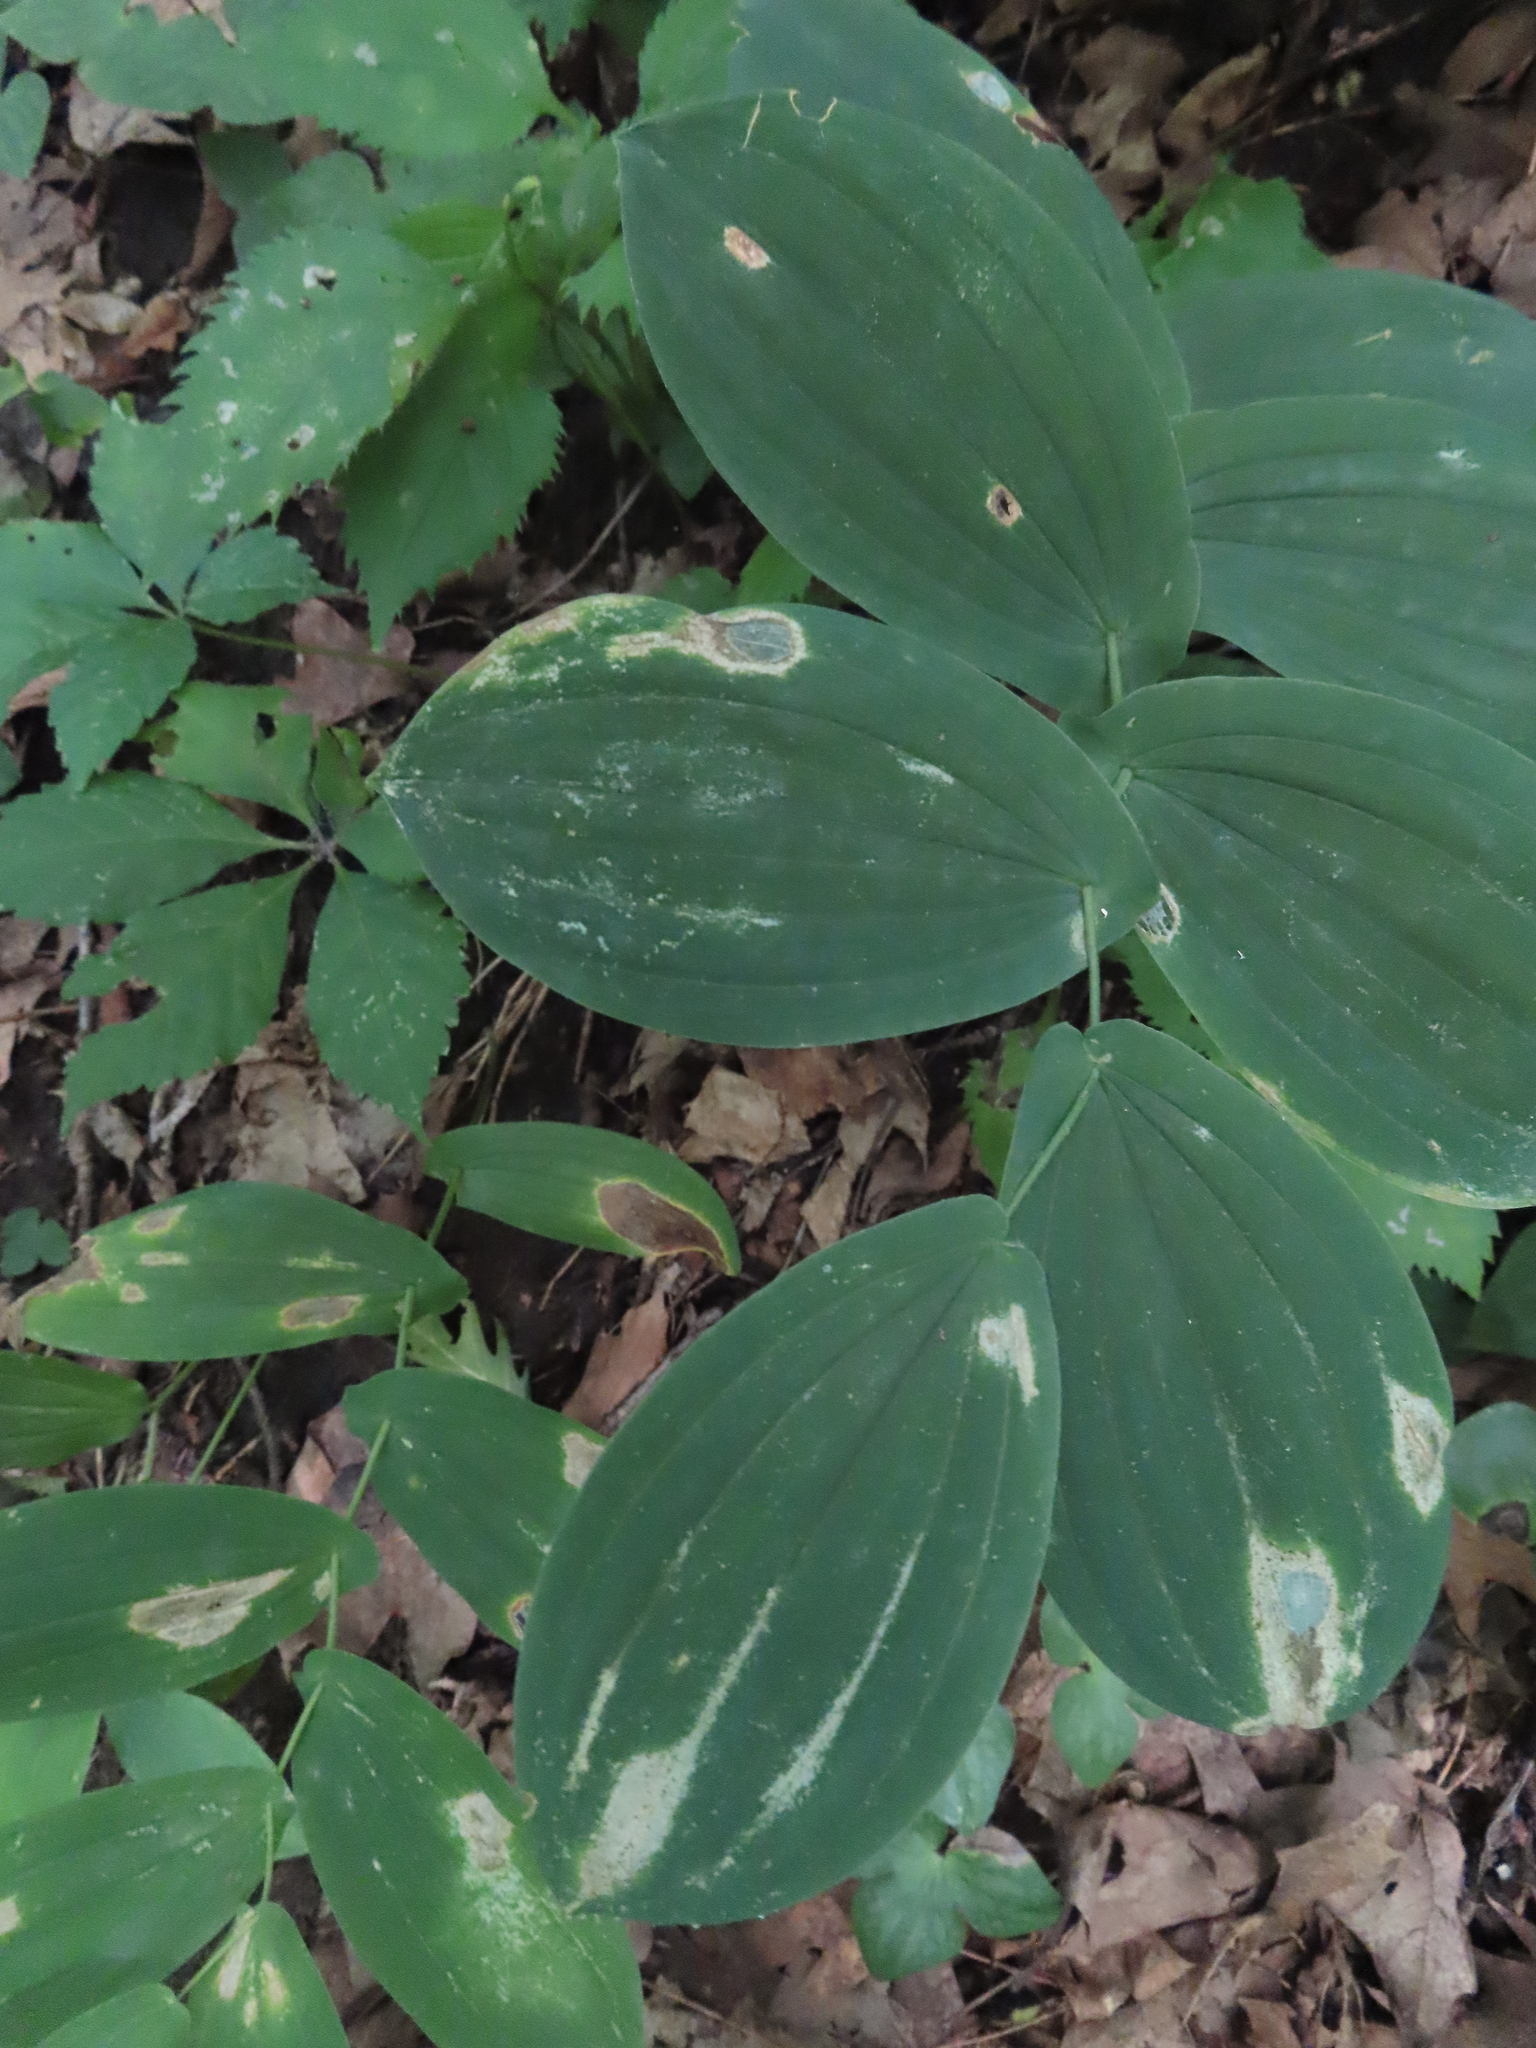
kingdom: Plantae
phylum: Tracheophyta
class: Liliopsida
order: Liliales
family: Colchicaceae
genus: Uvularia
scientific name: Uvularia grandiflora
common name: Bellwort
